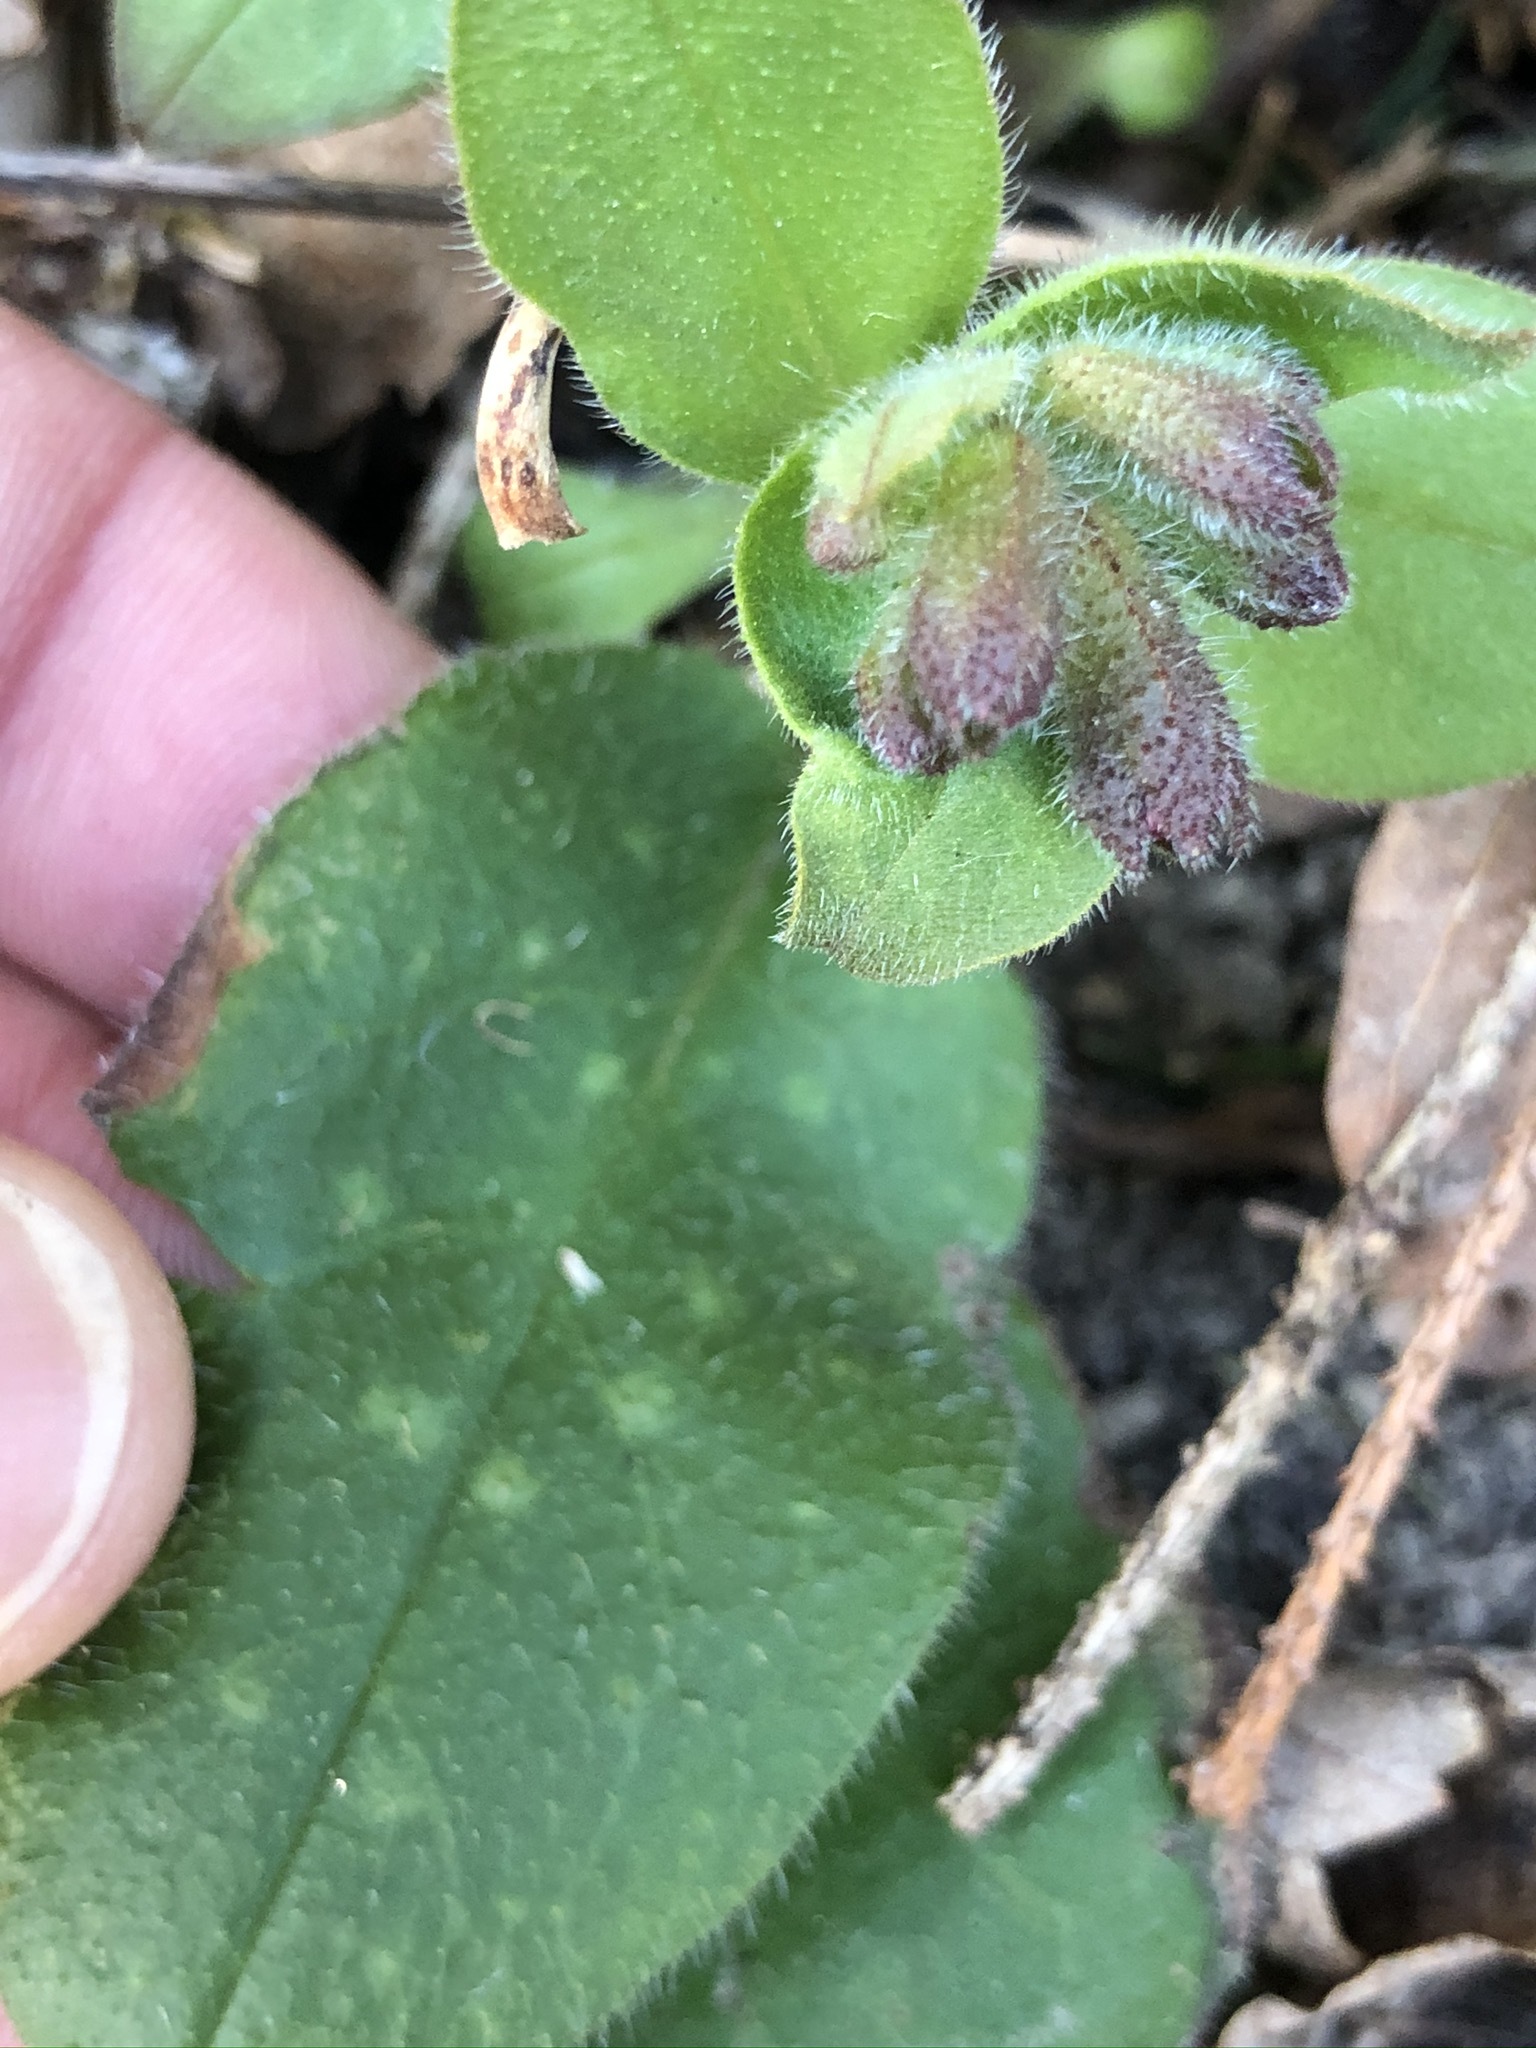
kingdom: Plantae
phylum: Tracheophyta
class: Magnoliopsida
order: Boraginales
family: Boraginaceae
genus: Pulmonaria
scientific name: Pulmonaria officinalis
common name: Lungwort
